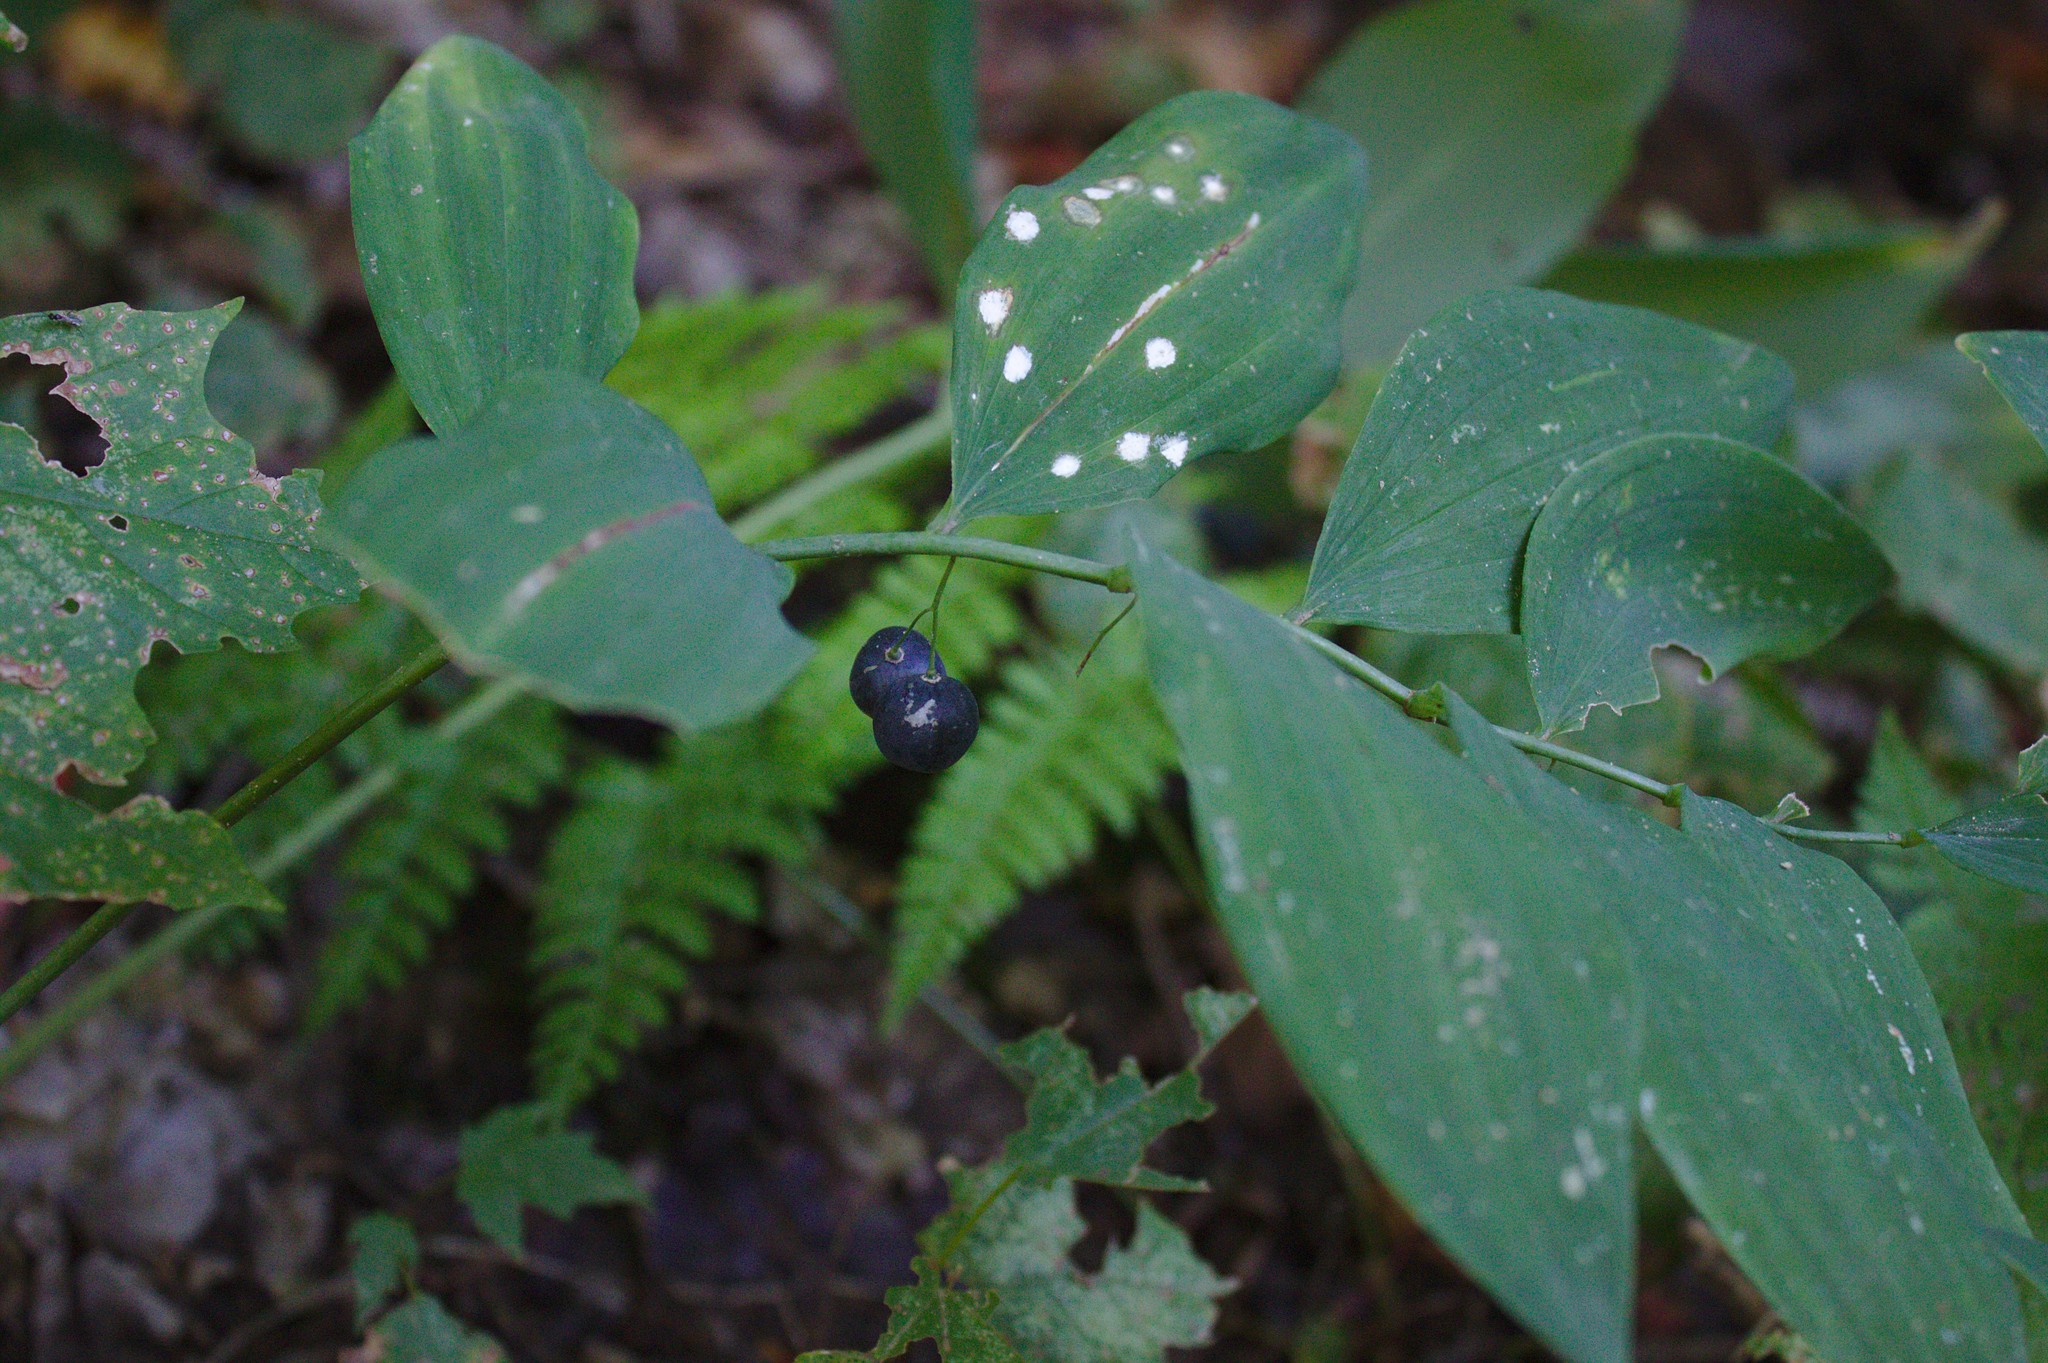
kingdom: Plantae
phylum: Tracheophyta
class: Liliopsida
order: Asparagales
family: Asparagaceae
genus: Polygonatum
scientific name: Polygonatum pubescens
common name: Downy solomon's seal
